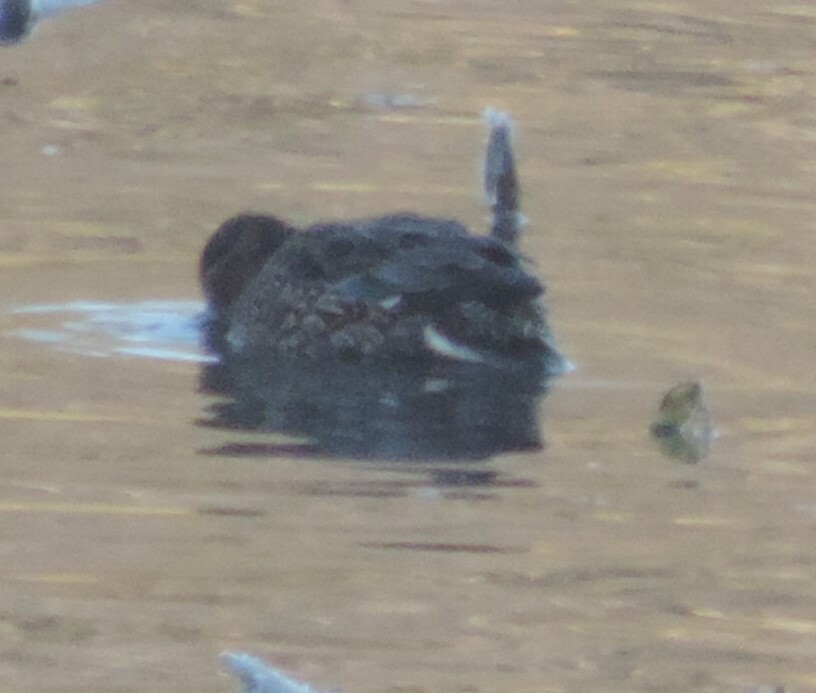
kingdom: Animalia
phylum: Chordata
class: Aves
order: Anseriformes
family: Anatidae
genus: Anas
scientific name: Anas crecca
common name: Eurasian teal
